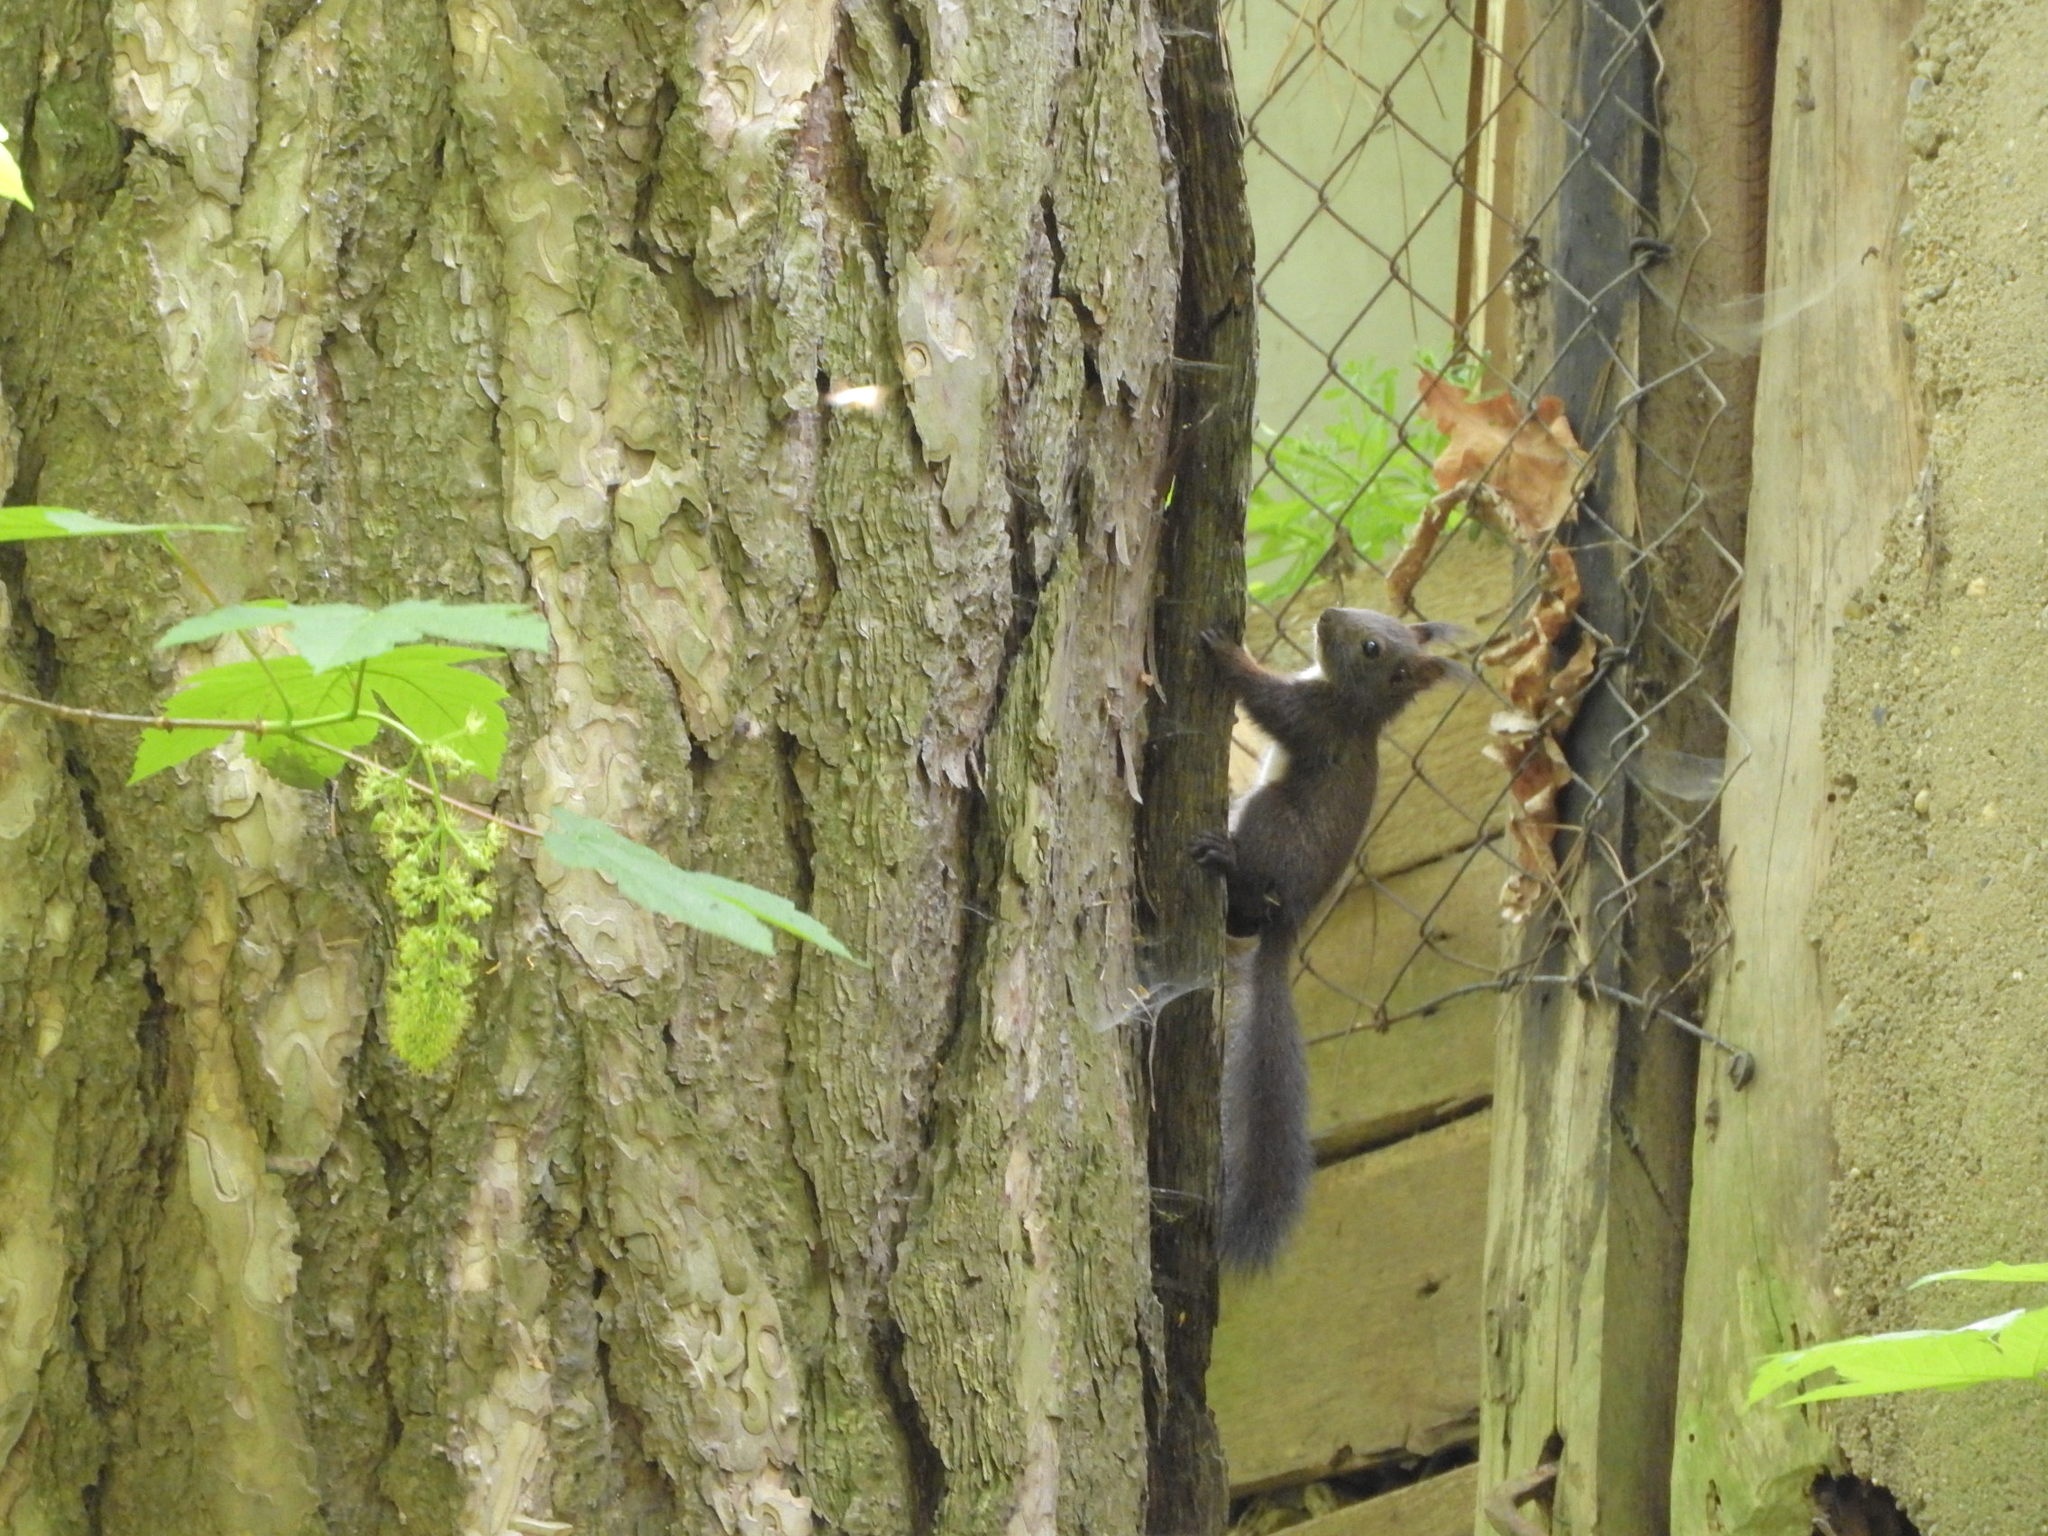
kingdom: Animalia
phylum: Chordata
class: Mammalia
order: Rodentia
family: Sciuridae
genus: Sciurus
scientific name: Sciurus vulgaris
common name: Eurasian red squirrel
